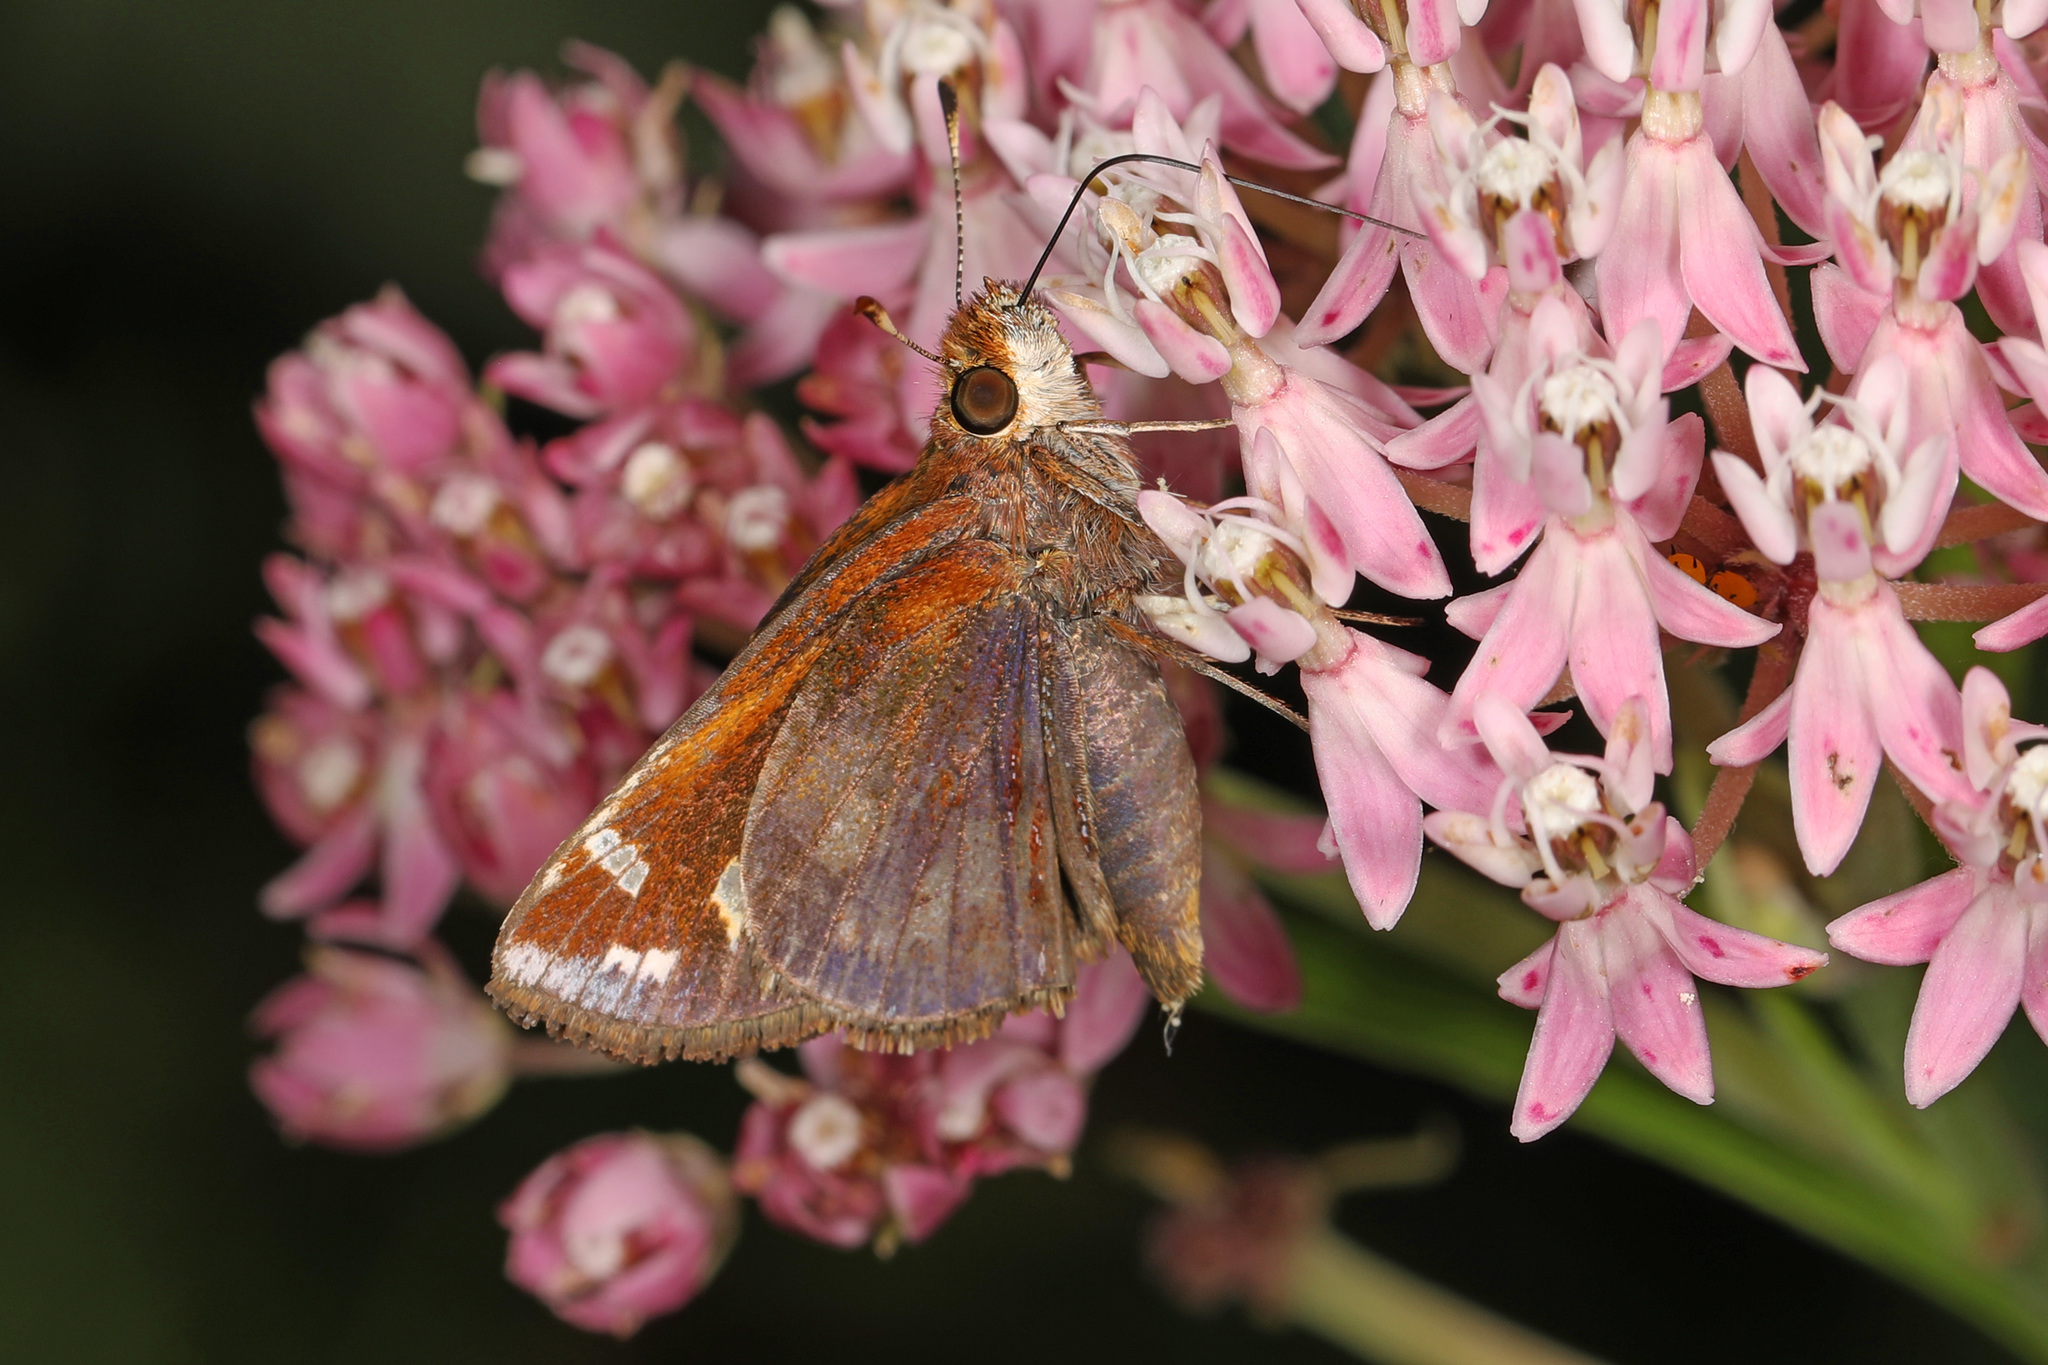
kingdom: Animalia
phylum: Arthropoda
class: Insecta
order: Lepidoptera
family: Hesperiidae
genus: Lon
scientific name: Lon zabulon
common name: Zabulon skipper
